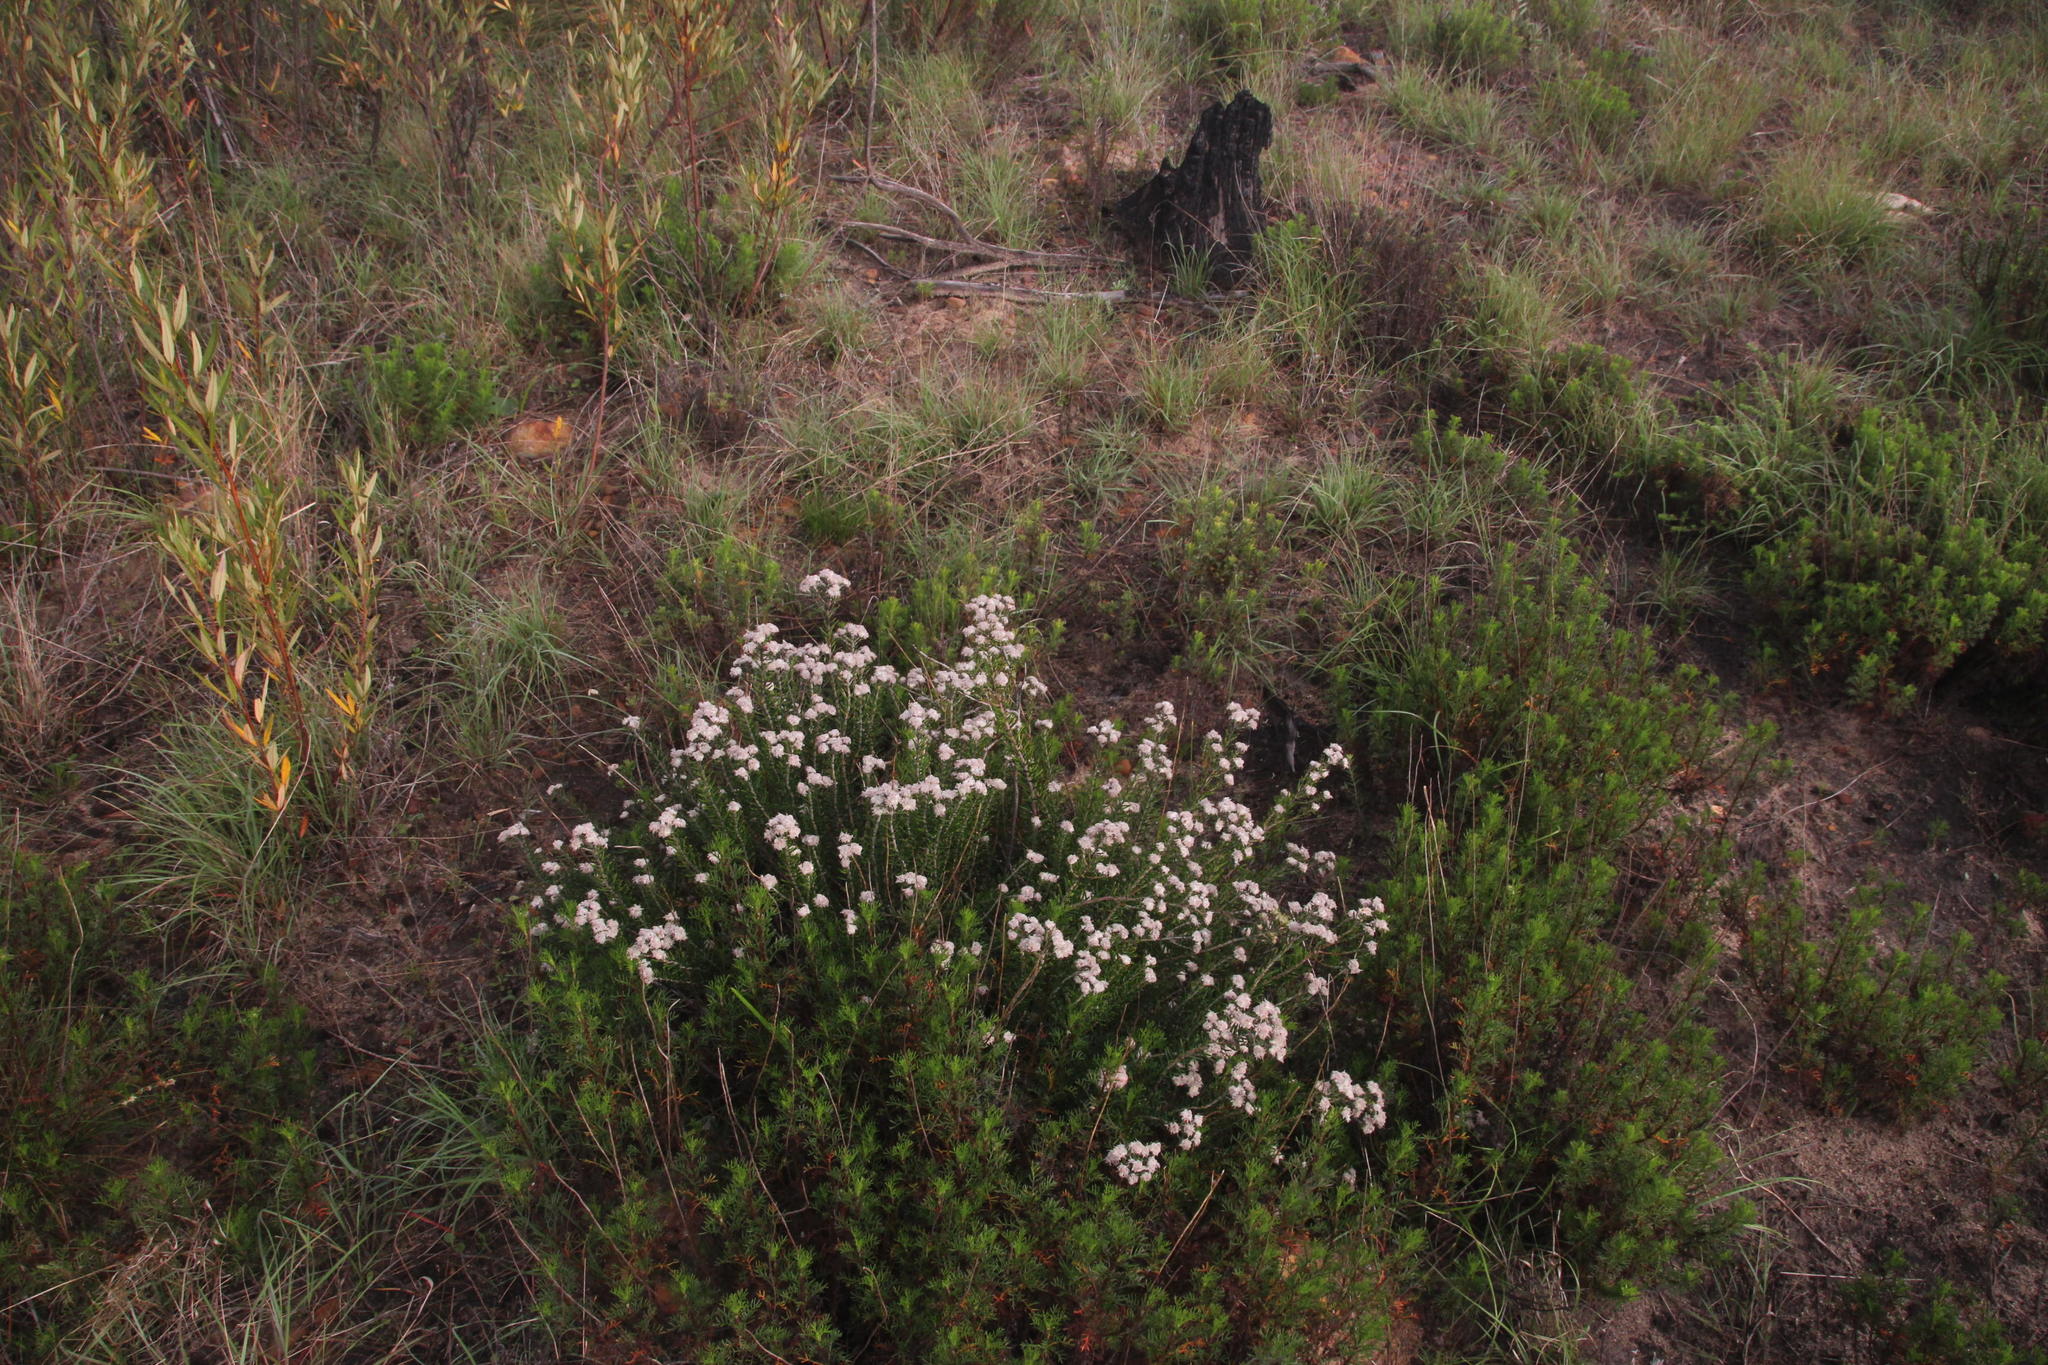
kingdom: Plantae
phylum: Tracheophyta
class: Magnoliopsida
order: Rosales
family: Rhamnaceae
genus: Trichocephalus
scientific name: Trichocephalus stipularis
